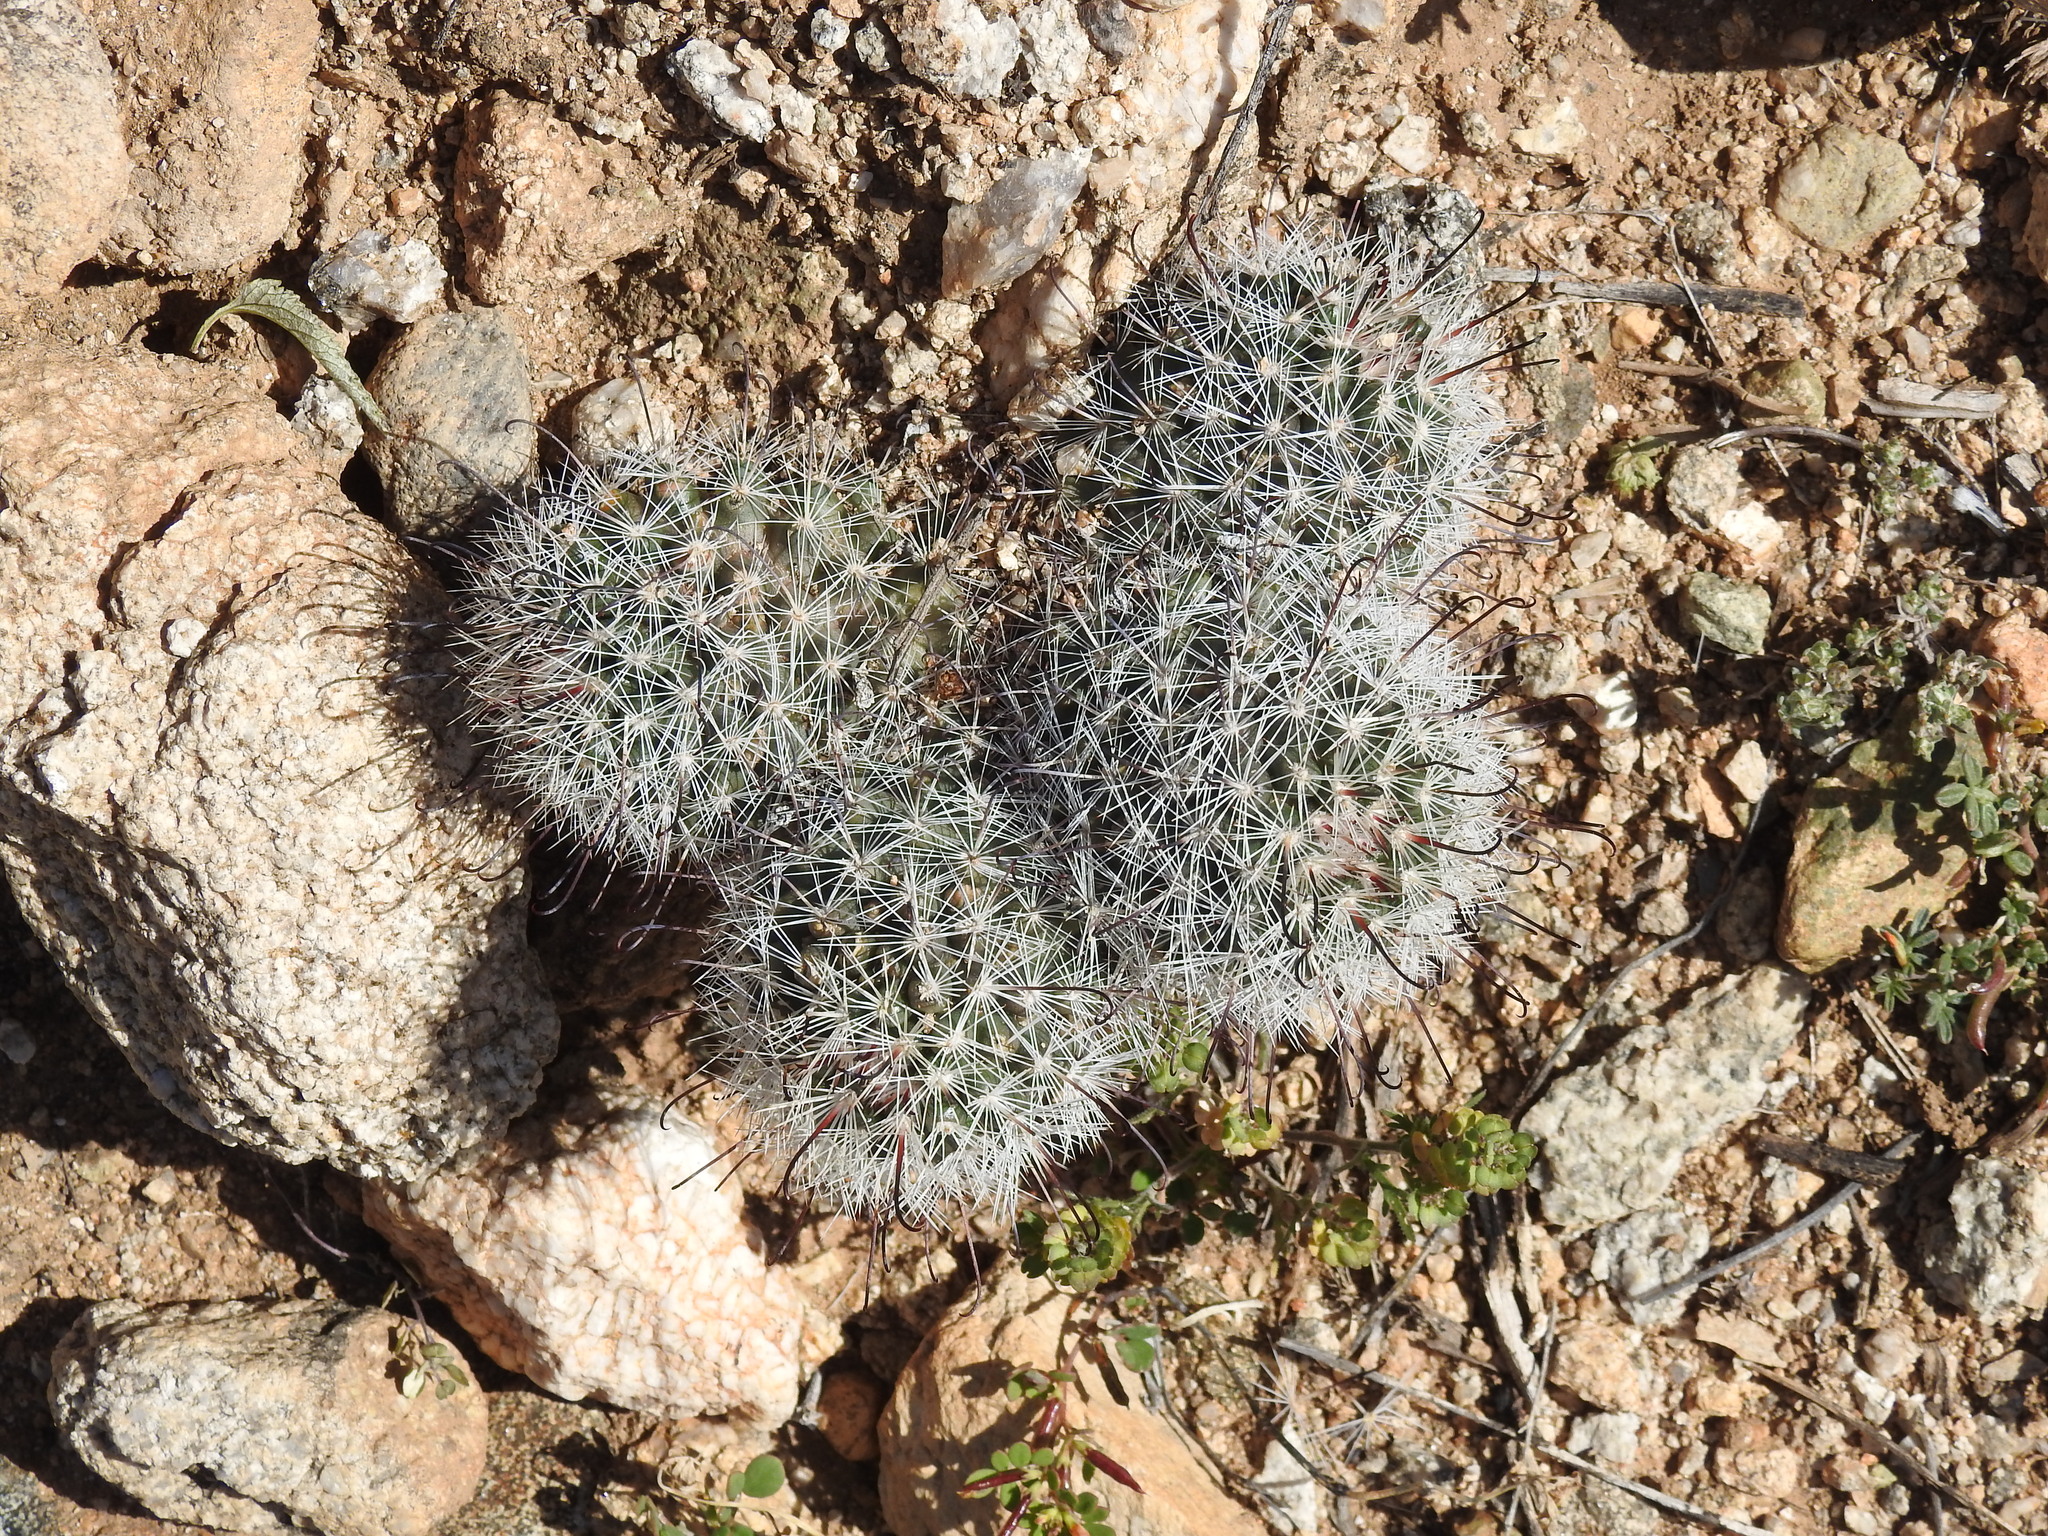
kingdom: Plantae
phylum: Tracheophyta
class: Magnoliopsida
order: Caryophyllales
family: Cactaceae
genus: Cochemiea
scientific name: Cochemiea grahamii
